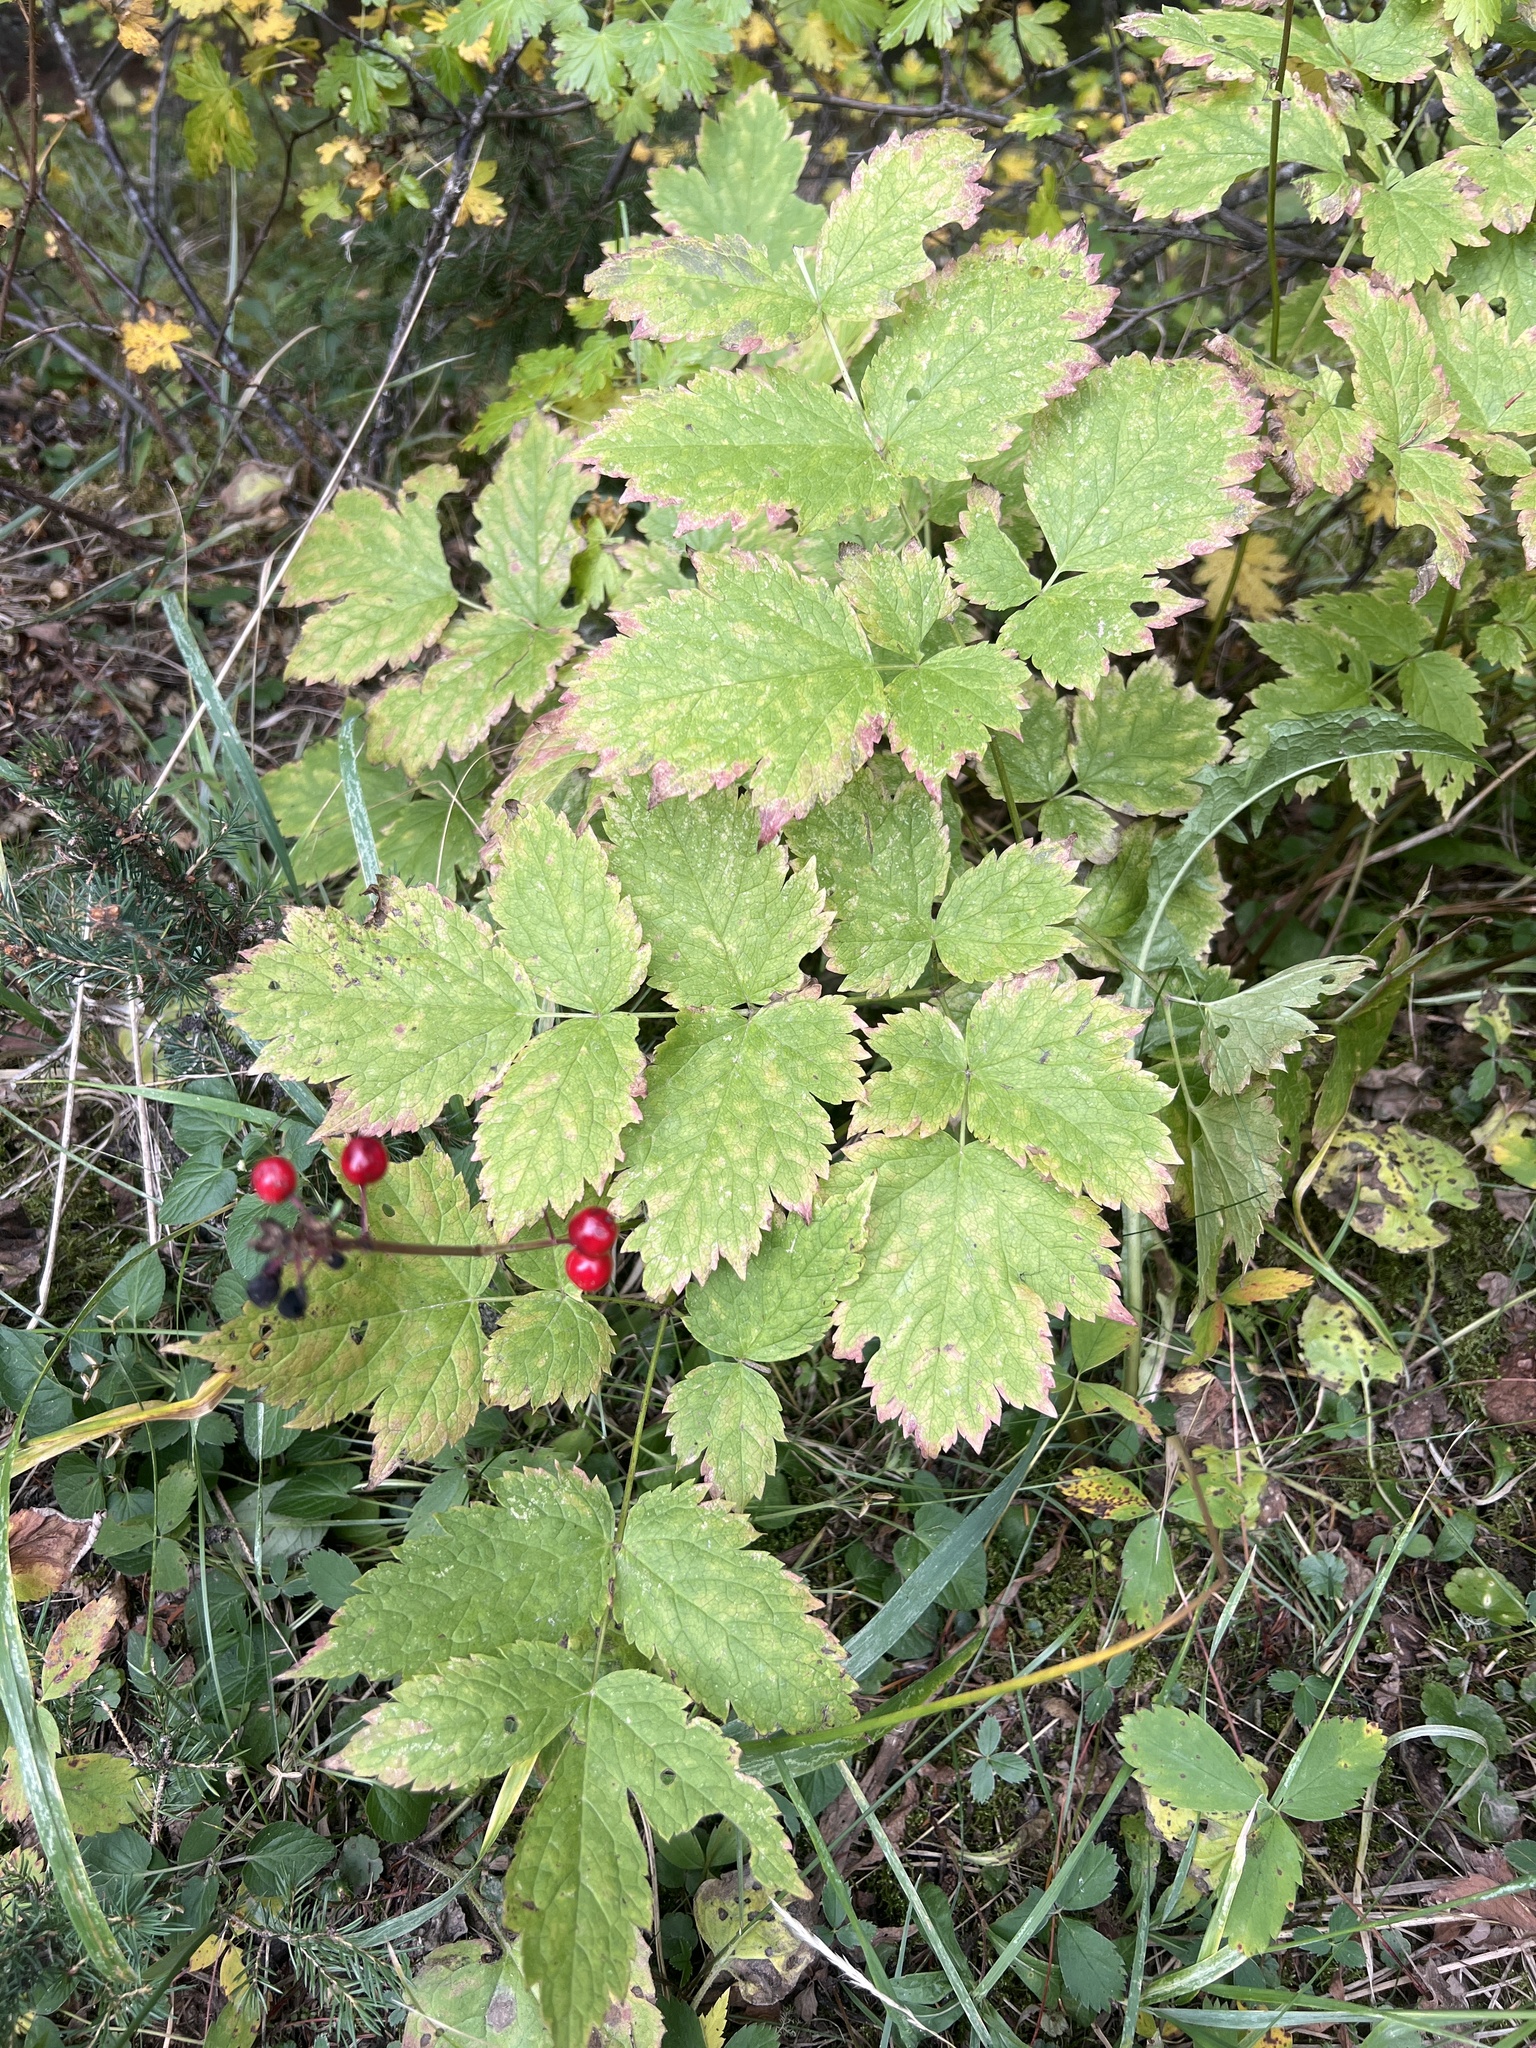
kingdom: Plantae
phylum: Tracheophyta
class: Magnoliopsida
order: Ranunculales
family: Ranunculaceae
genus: Actaea
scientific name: Actaea rubra
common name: Red baneberry
